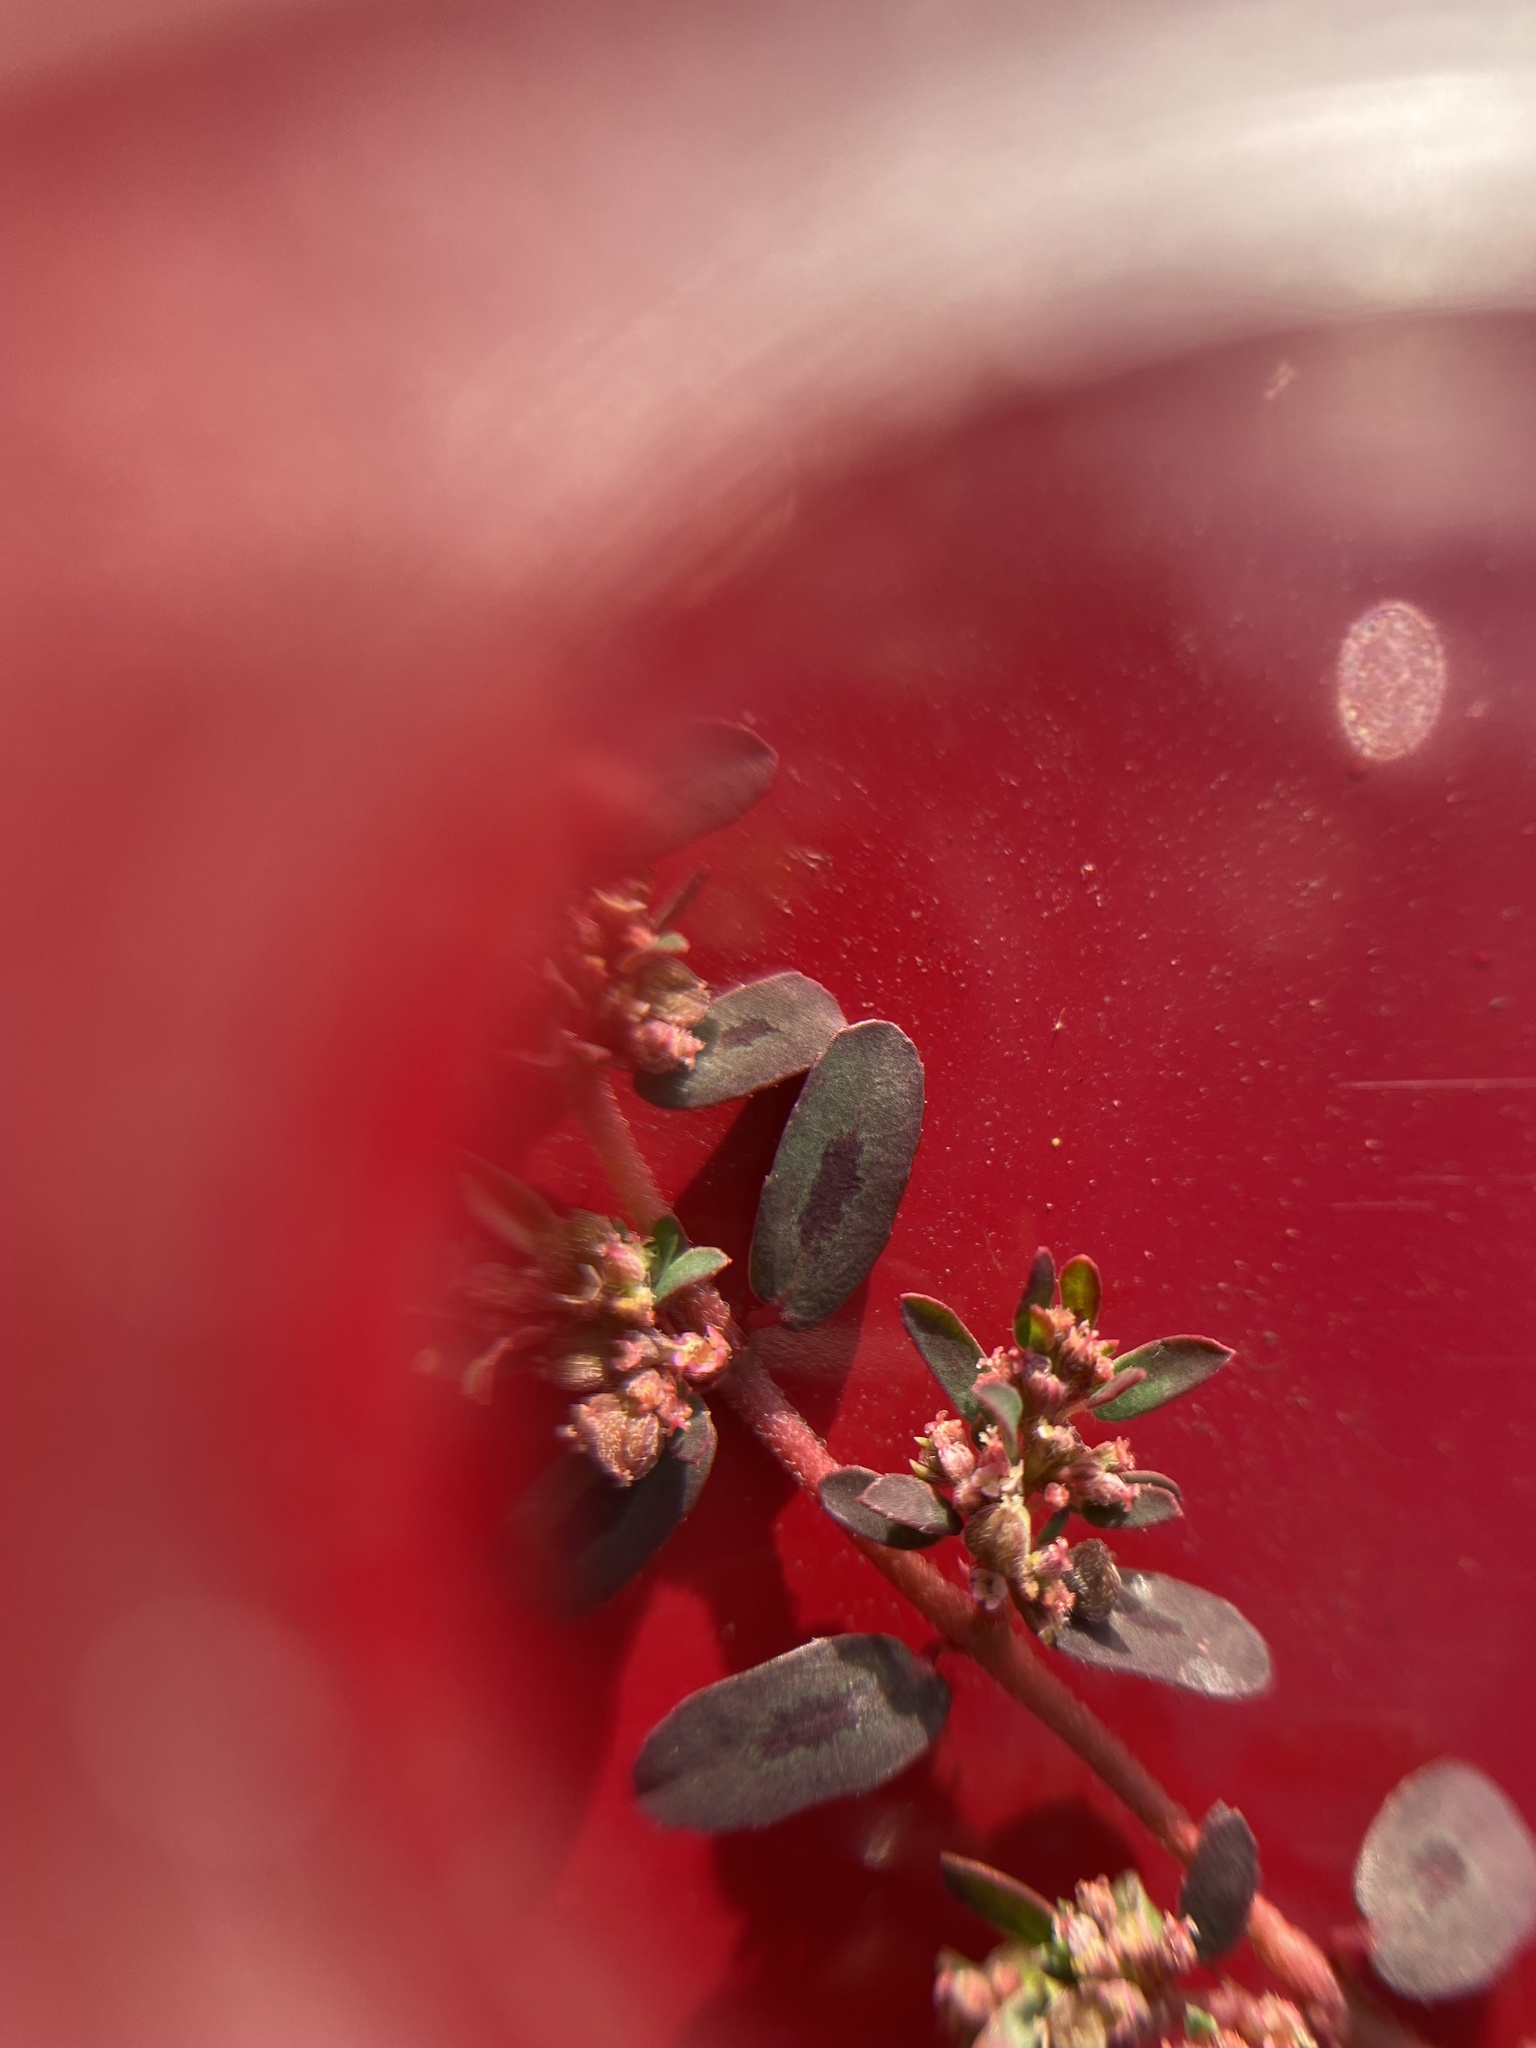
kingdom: Plantae
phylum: Tracheophyta
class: Magnoliopsida
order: Malpighiales
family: Euphorbiaceae
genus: Euphorbia
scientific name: Euphorbia maculata
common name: Spotted spurge
